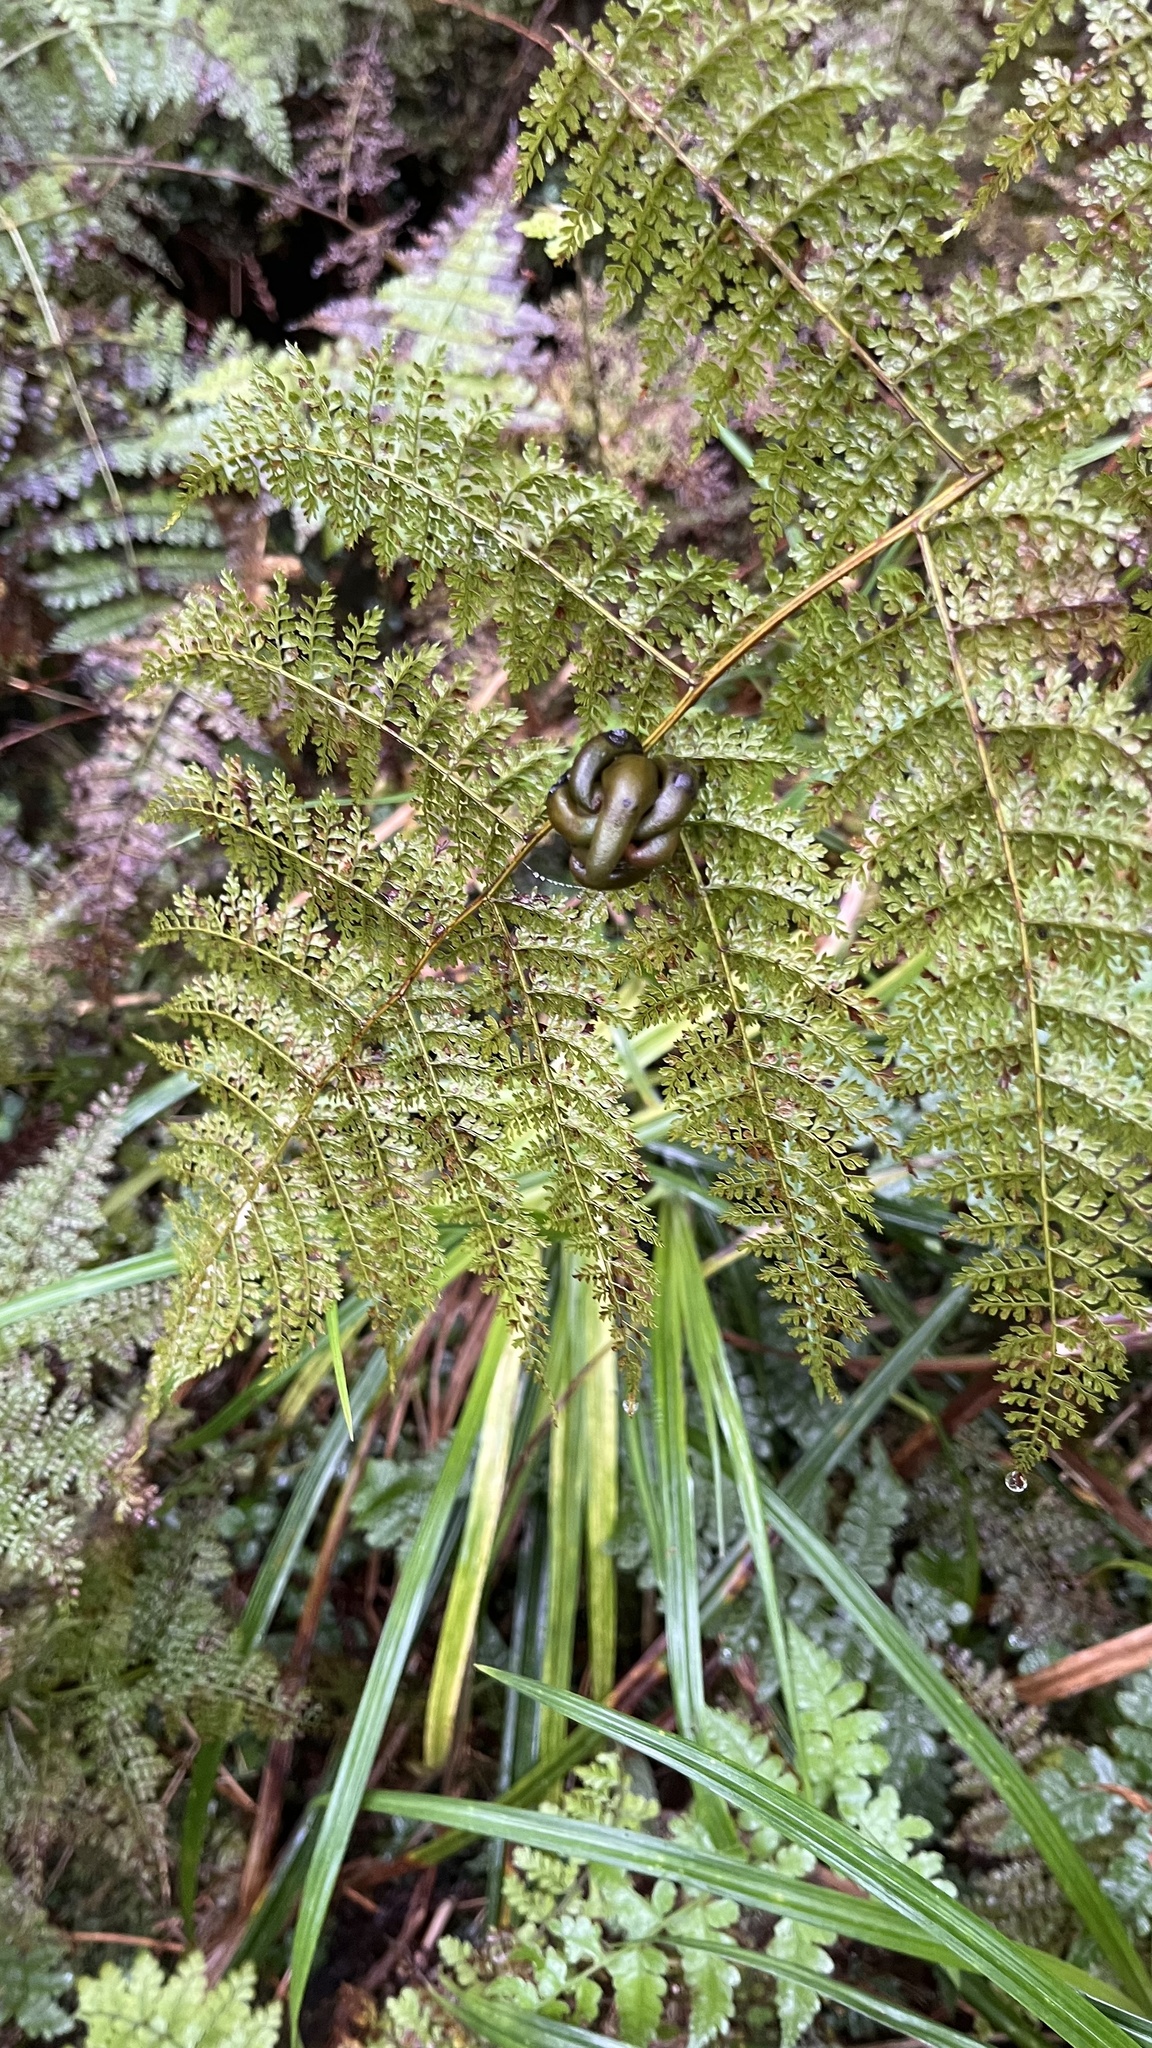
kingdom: Plantae
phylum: Tracheophyta
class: Polypodiopsida
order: Polypodiales
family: Dennstaedtiaceae
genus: Monachosorum
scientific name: Monachosorum henryi
